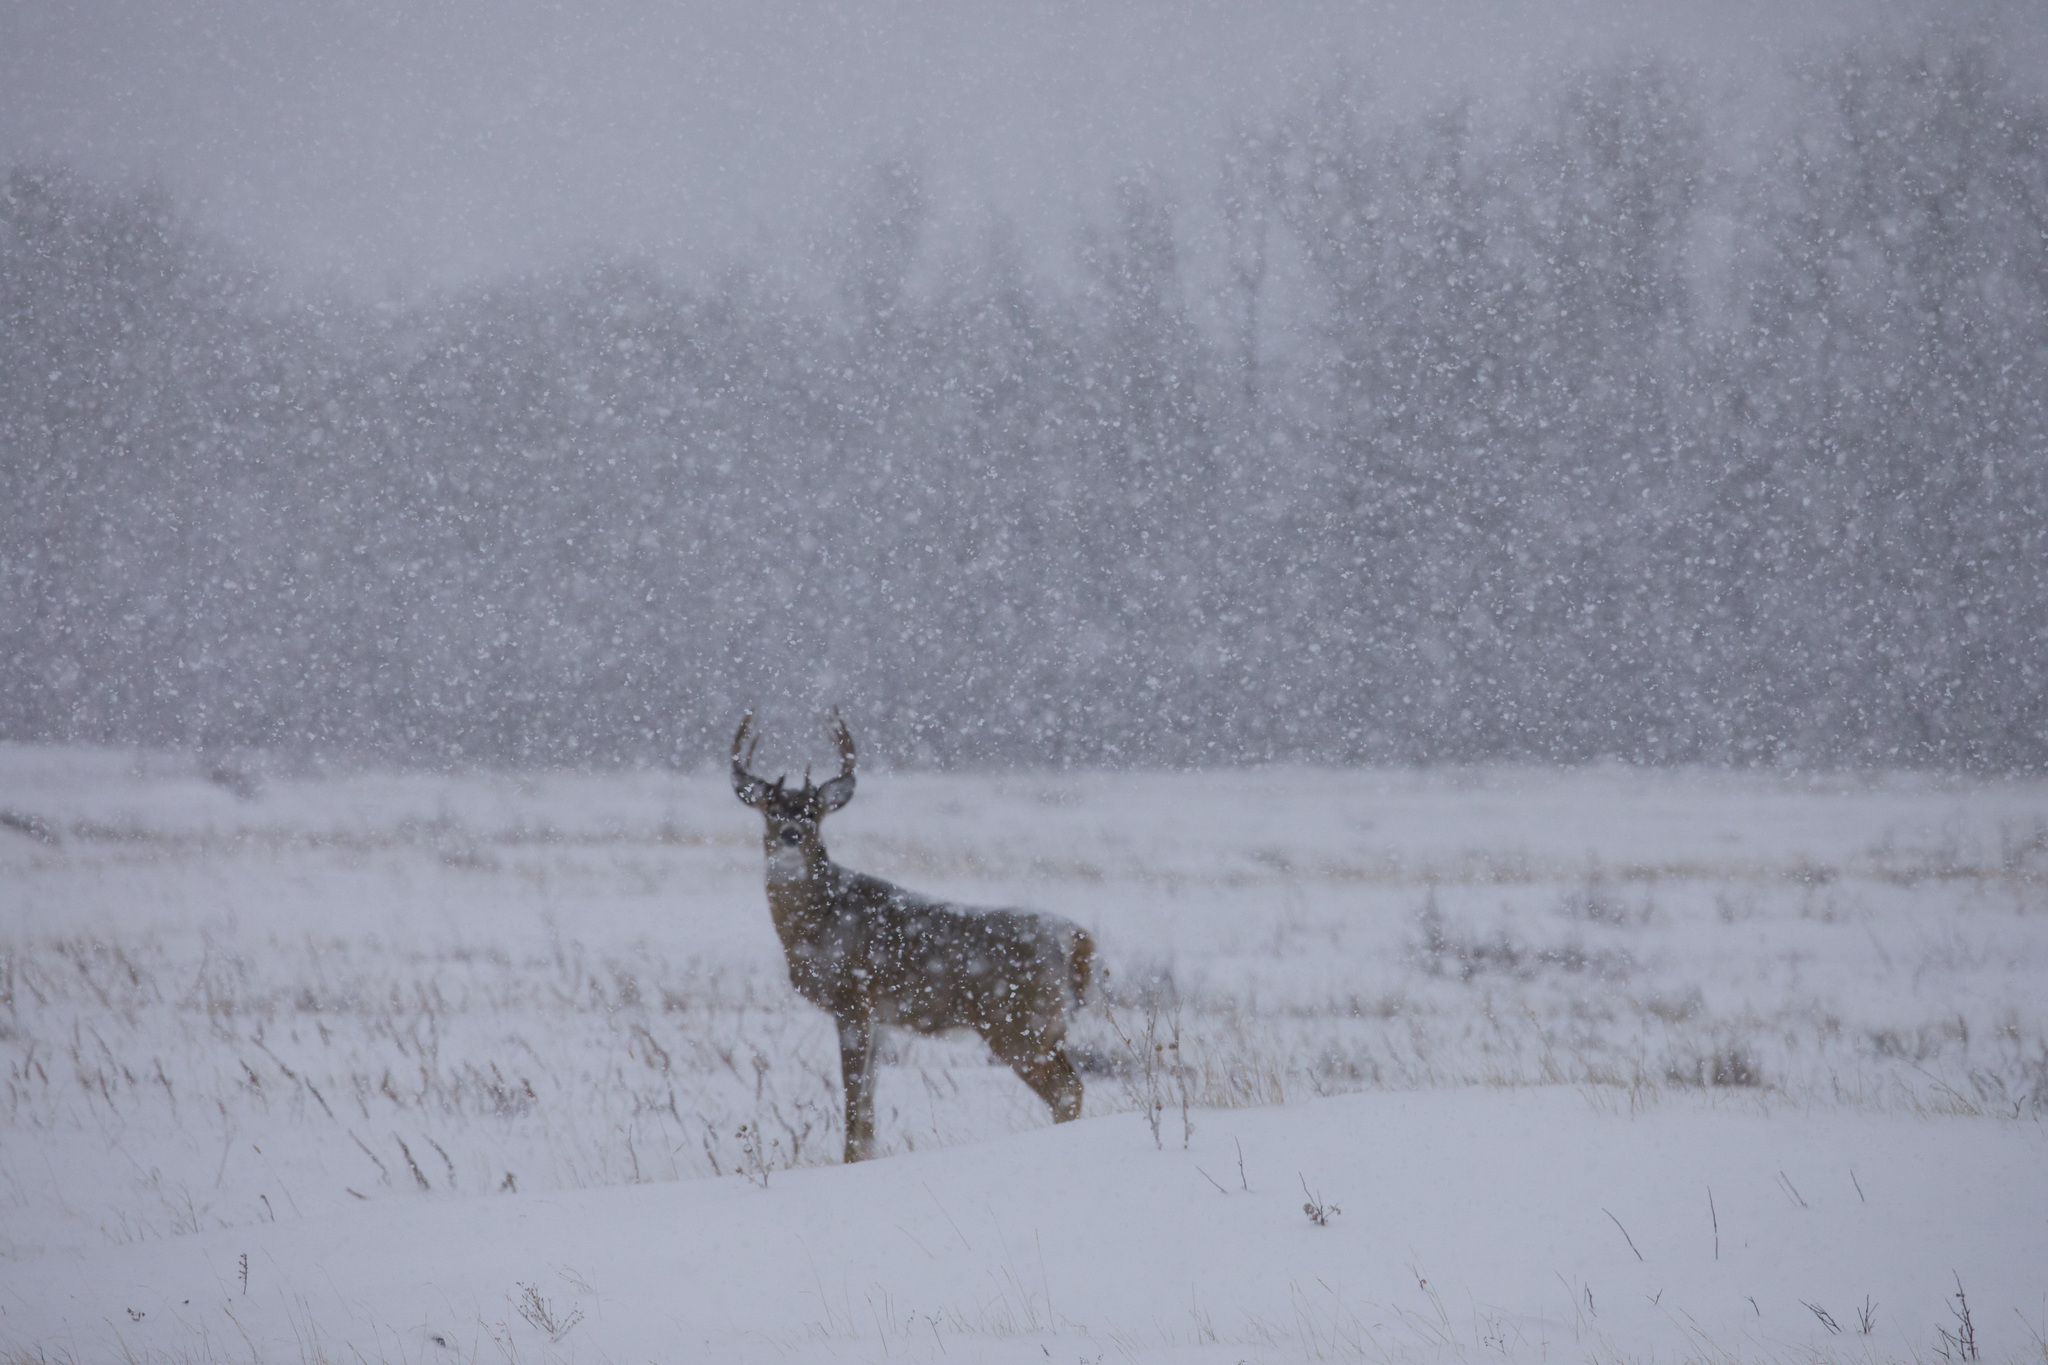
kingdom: Animalia
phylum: Chordata
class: Mammalia
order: Artiodactyla
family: Cervidae
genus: Odocoileus
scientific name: Odocoileus virginianus
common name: White-tailed deer
